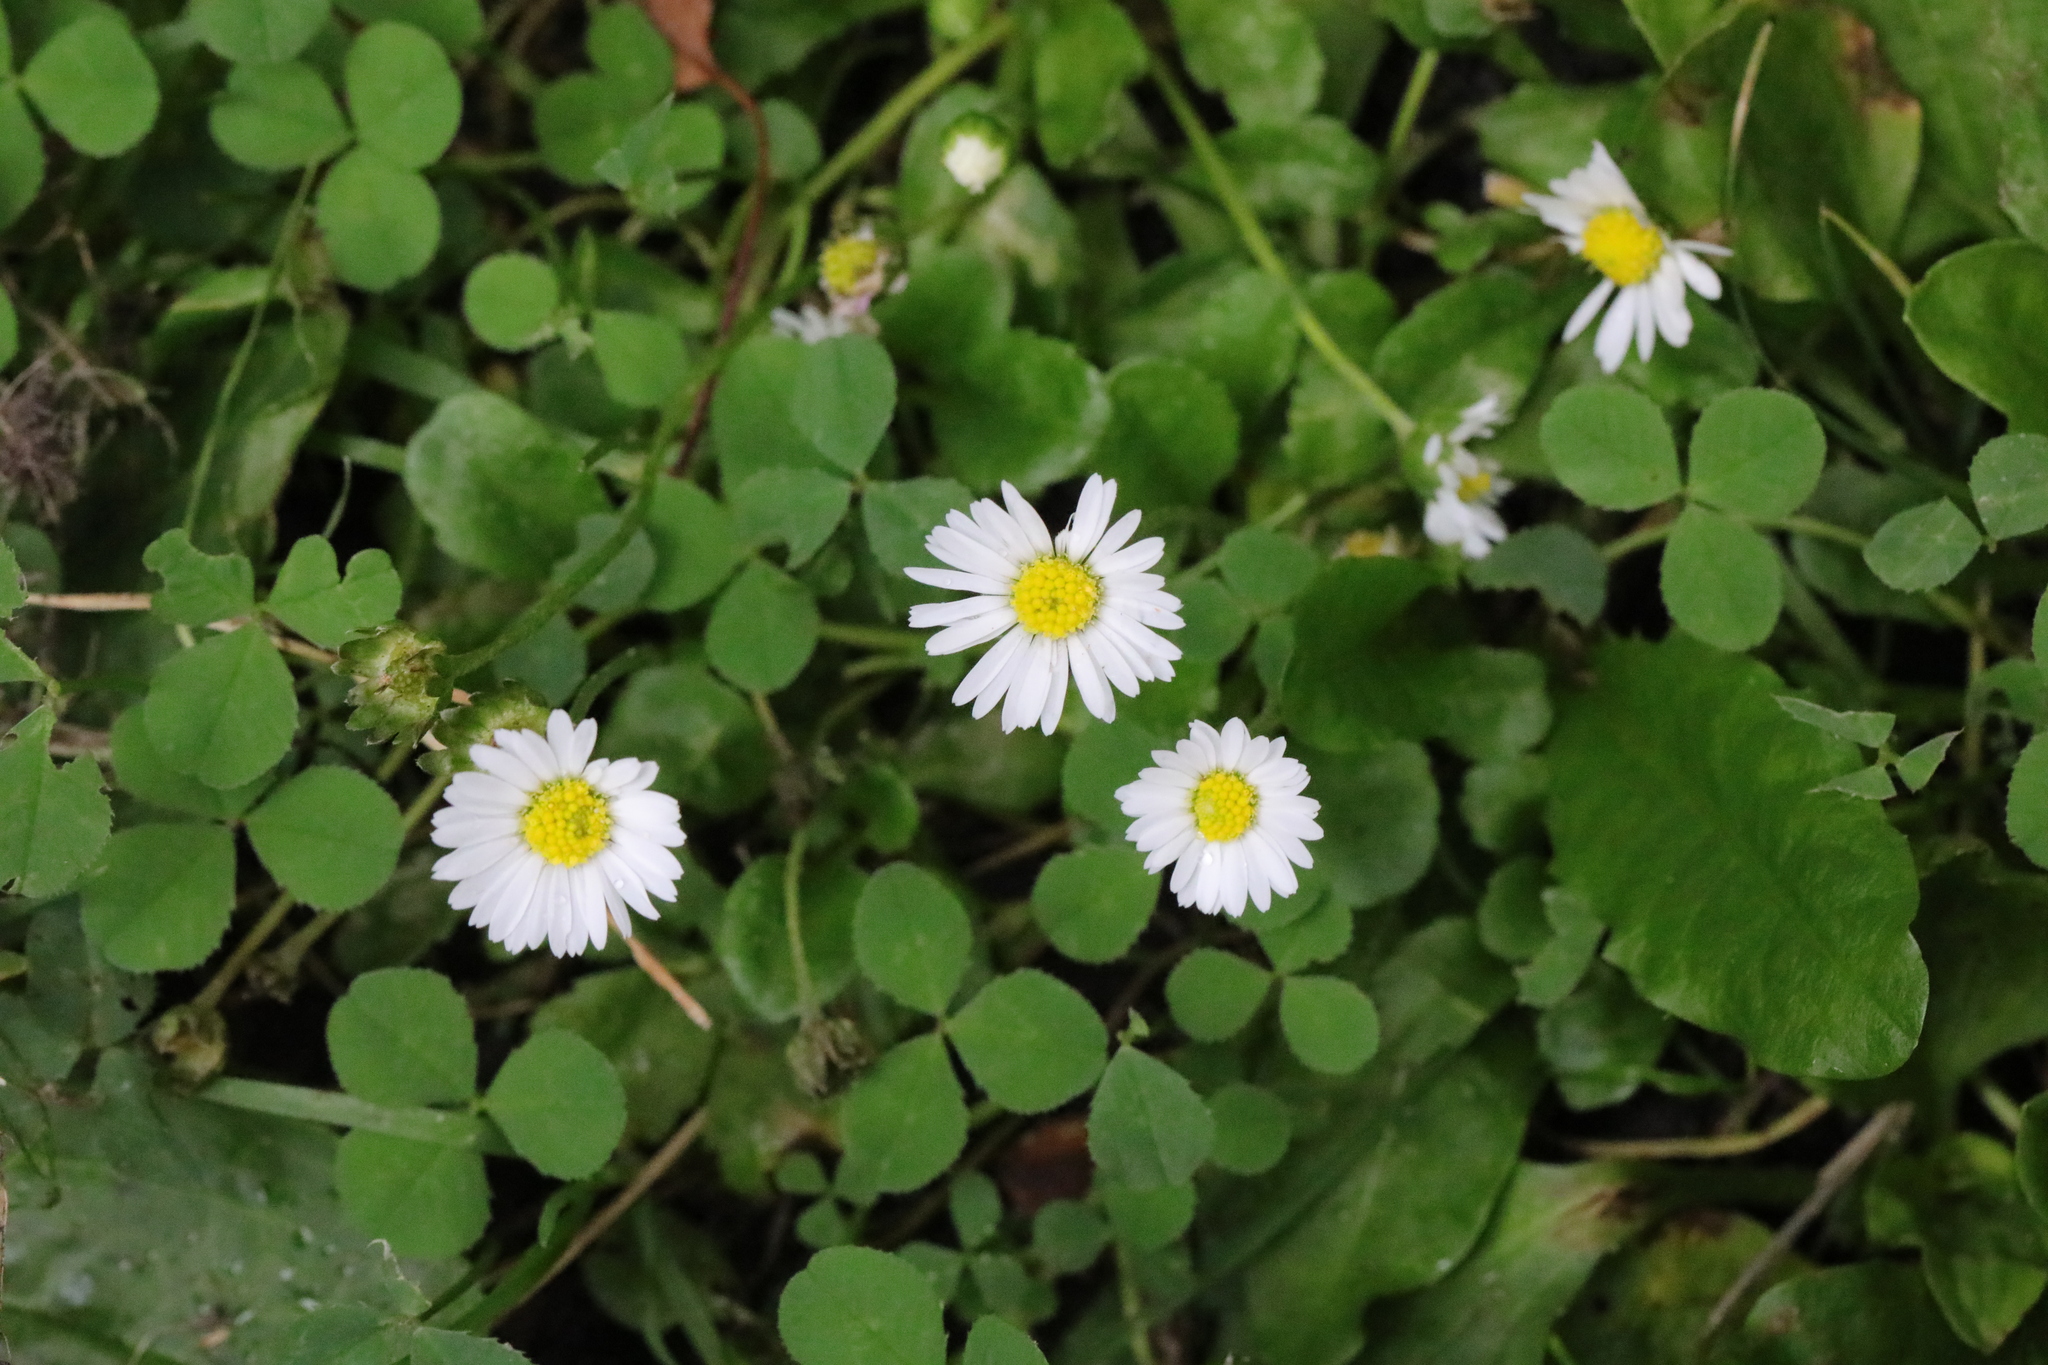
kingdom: Plantae
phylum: Tracheophyta
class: Magnoliopsida
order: Asterales
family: Asteraceae
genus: Bellis
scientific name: Bellis perennis
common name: Lawndaisy
